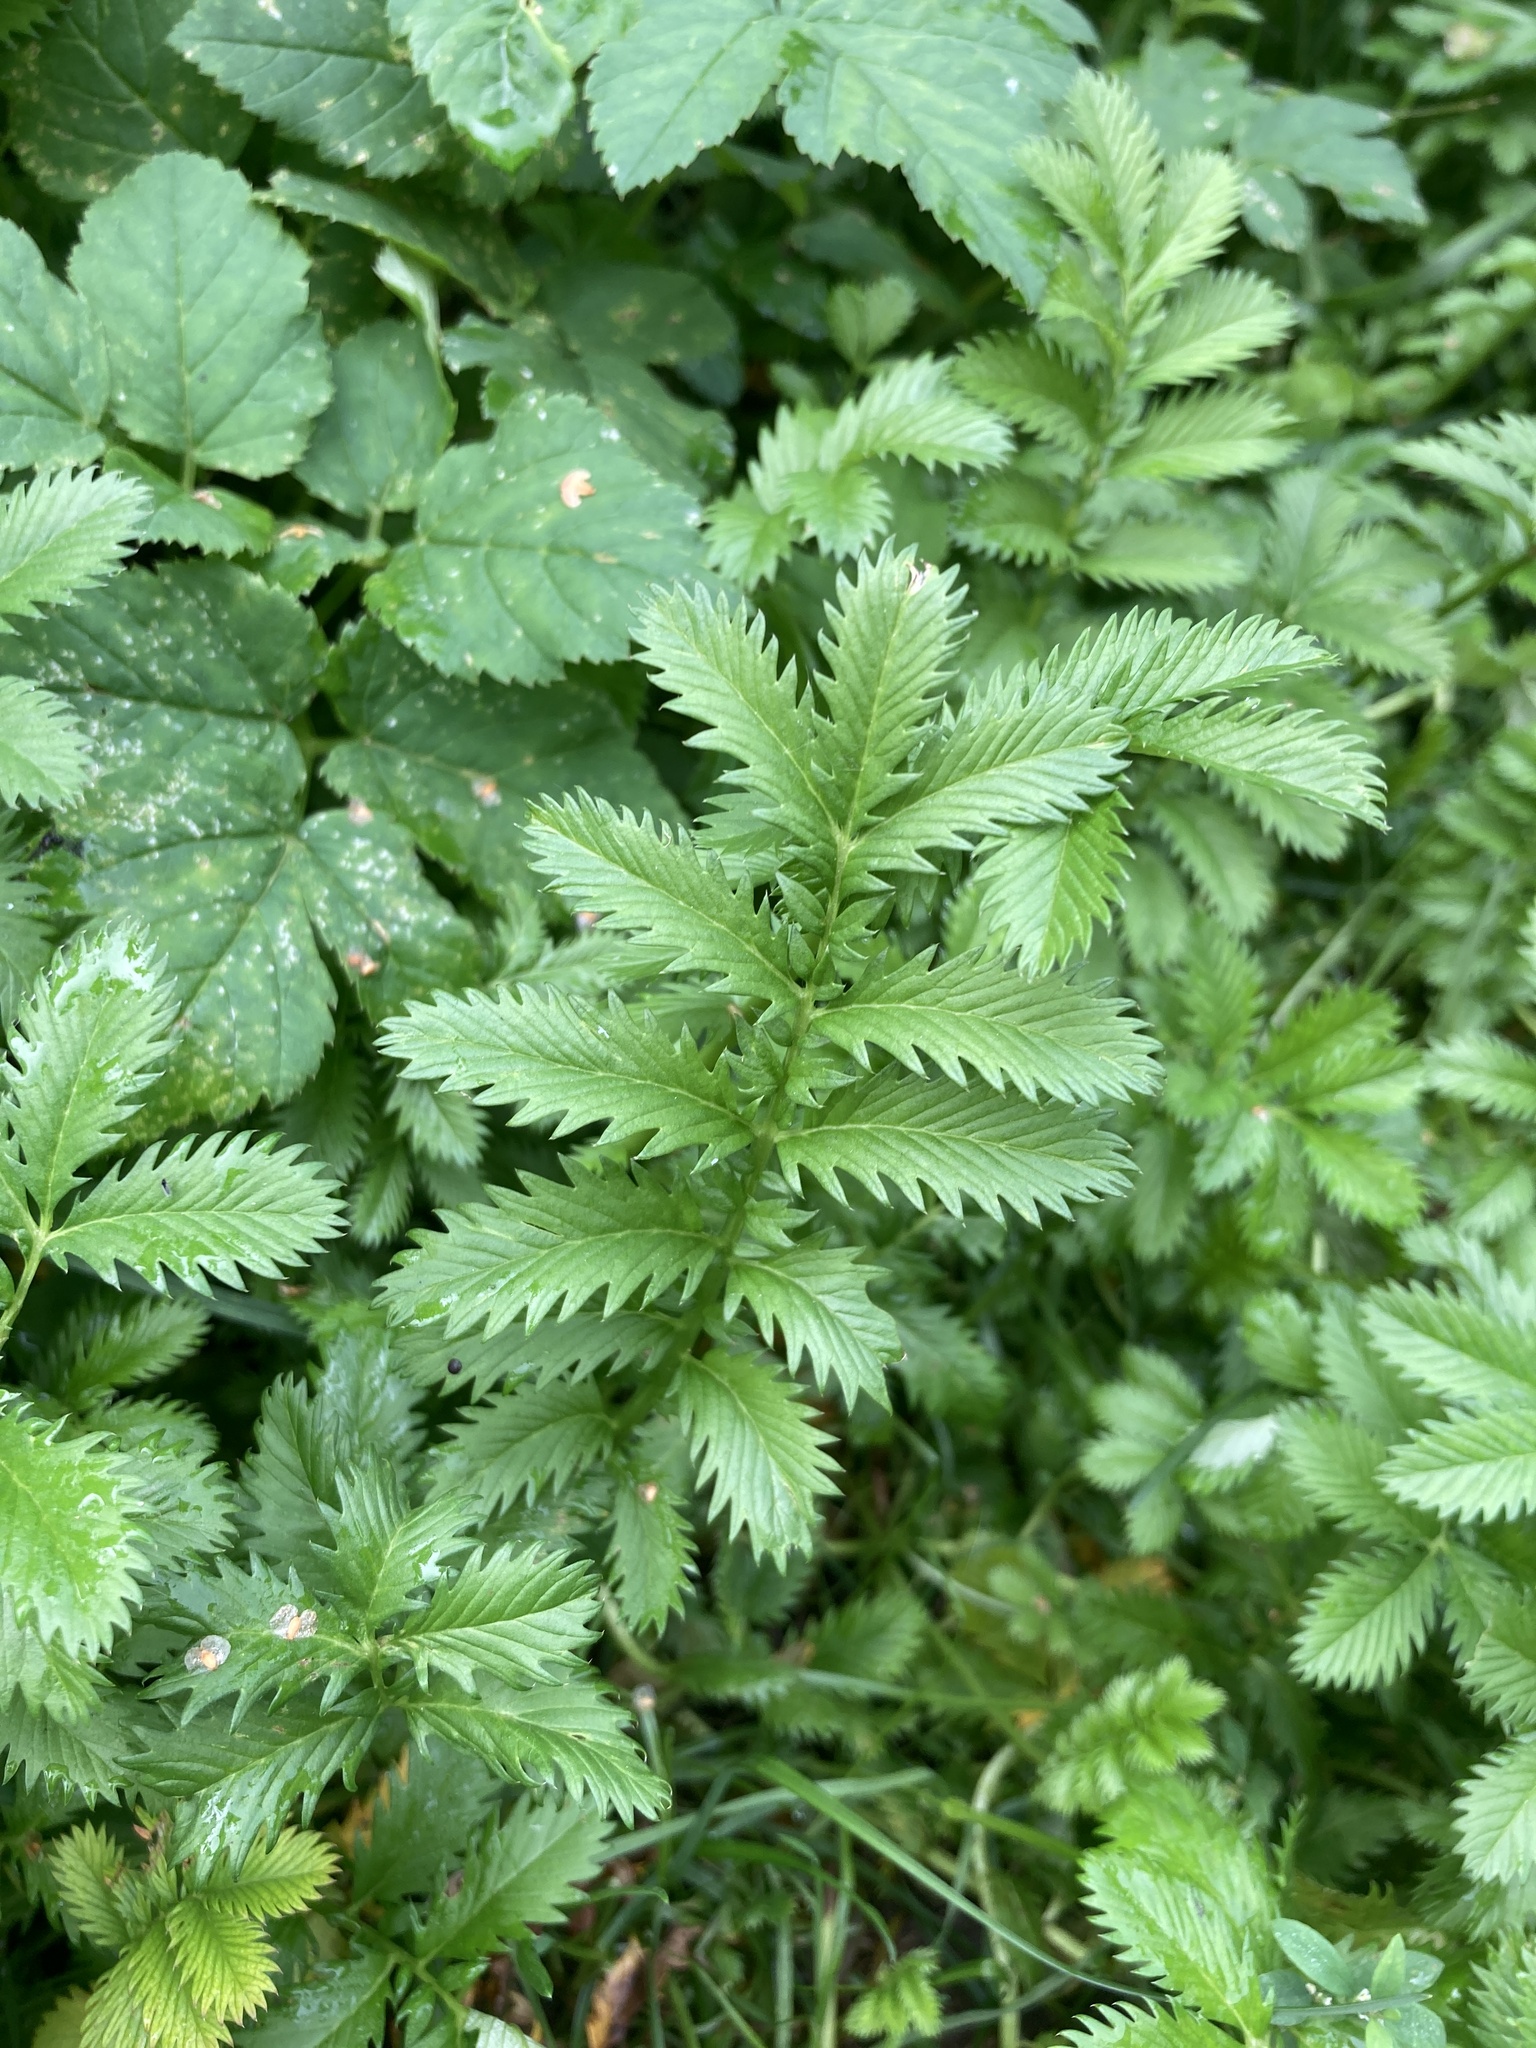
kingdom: Plantae
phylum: Tracheophyta
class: Magnoliopsida
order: Rosales
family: Rosaceae
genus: Argentina
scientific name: Argentina anserina
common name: Common silverweed
